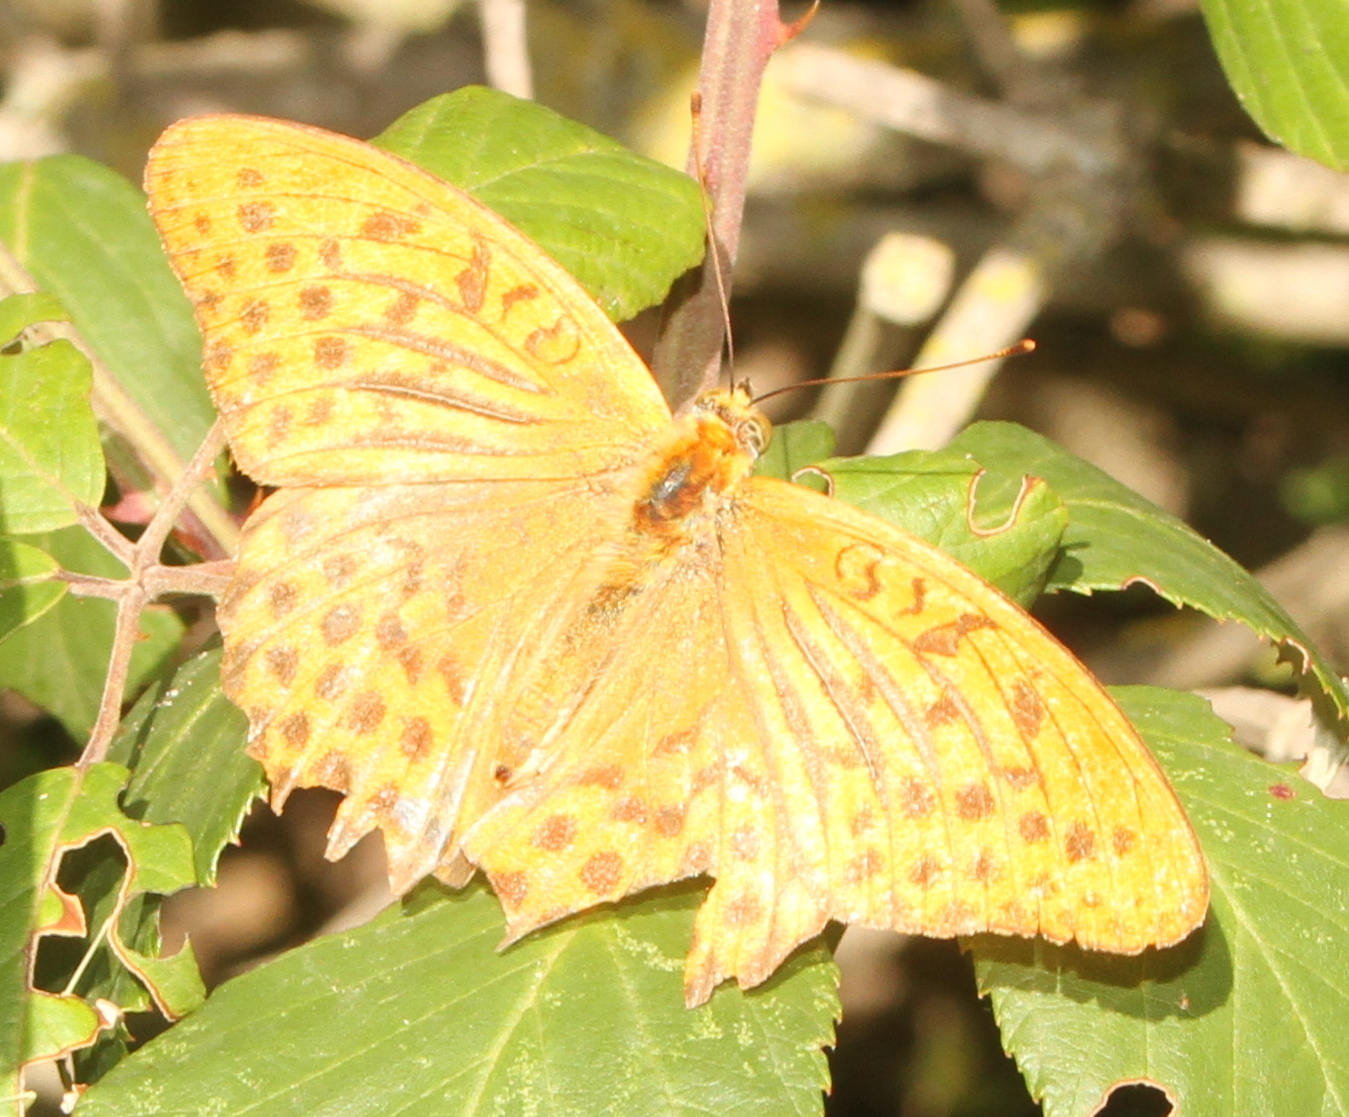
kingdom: Animalia
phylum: Arthropoda
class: Insecta
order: Lepidoptera
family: Nymphalidae
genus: Argynnis
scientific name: Argynnis paphia
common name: Silver-washed fritillary
